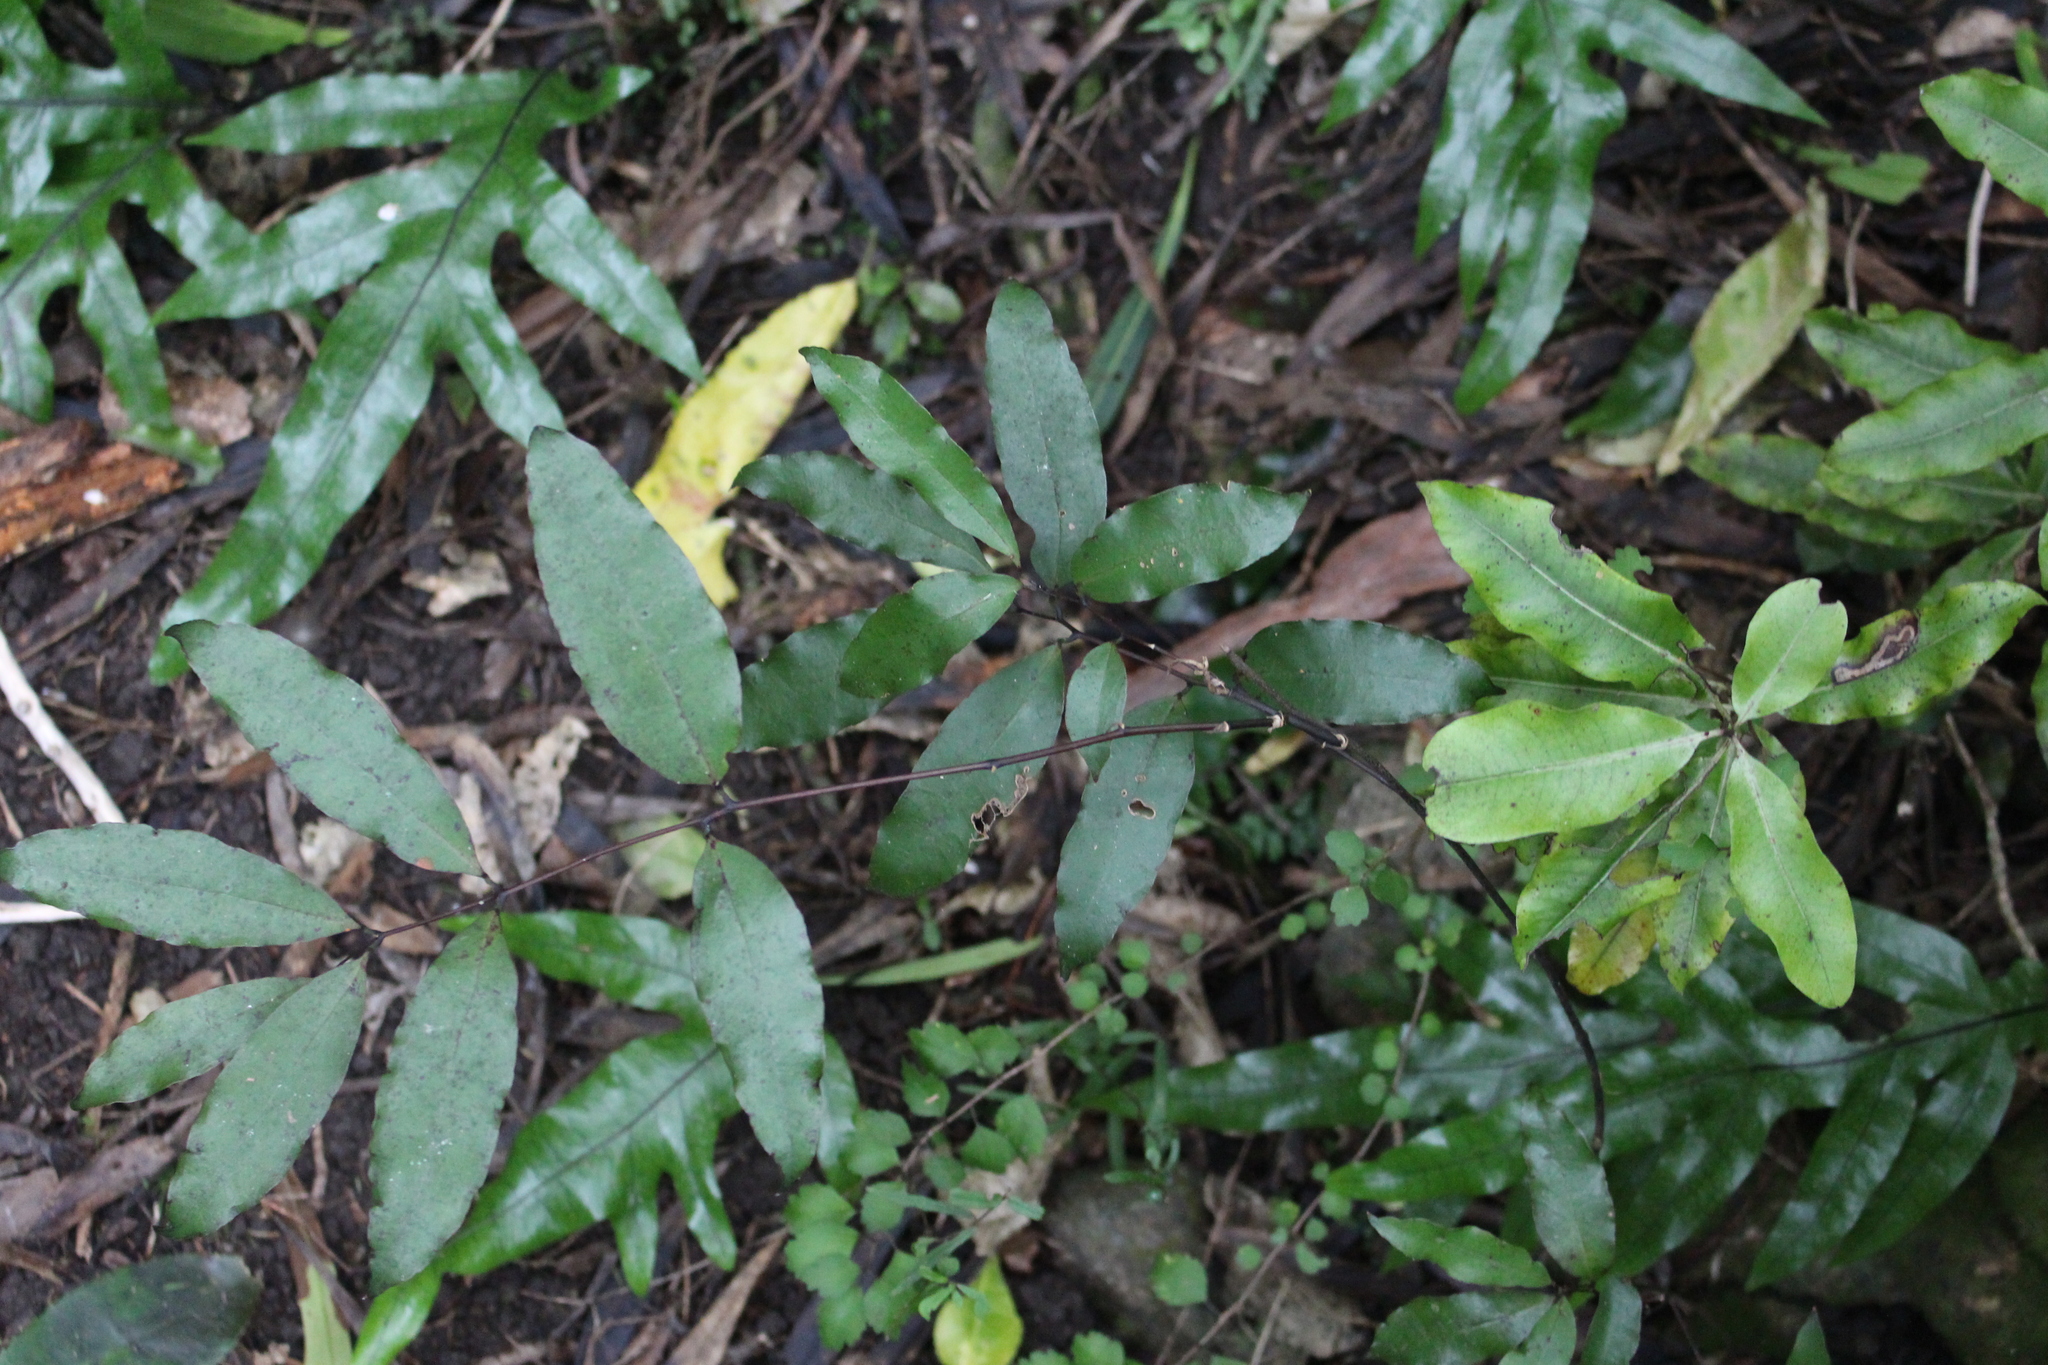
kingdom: Plantae
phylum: Tracheophyta
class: Liliopsida
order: Liliales
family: Ripogonaceae
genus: Ripogonum
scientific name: Ripogonum scandens
